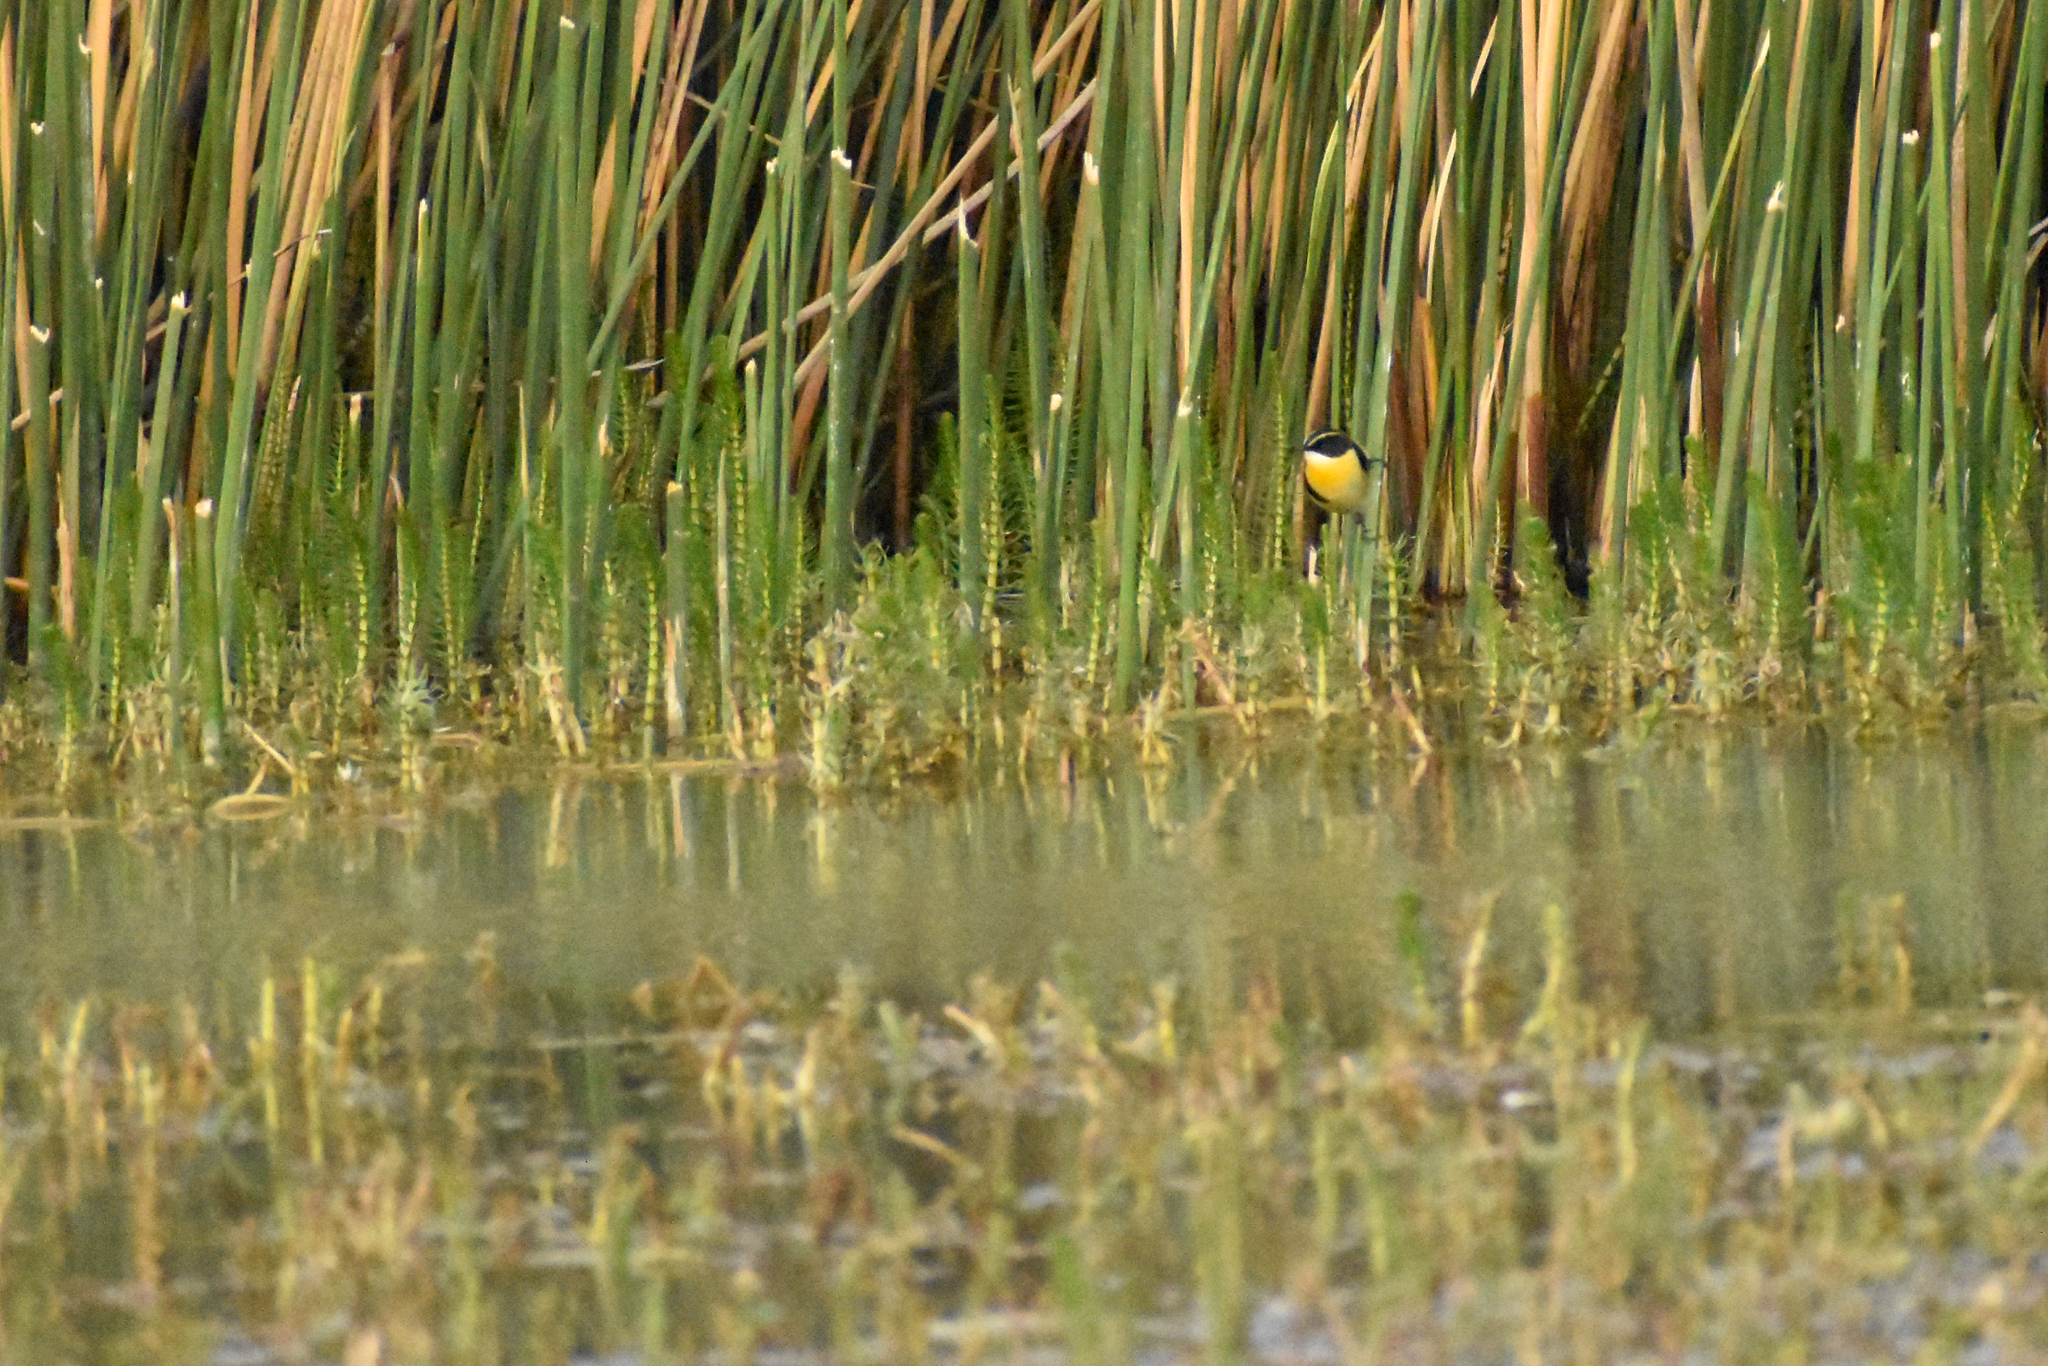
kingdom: Animalia
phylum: Chordata
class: Aves
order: Passeriformes
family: Tyrannidae
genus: Tachuris
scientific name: Tachuris rubrigastra
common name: Many-colored rush tyrant
